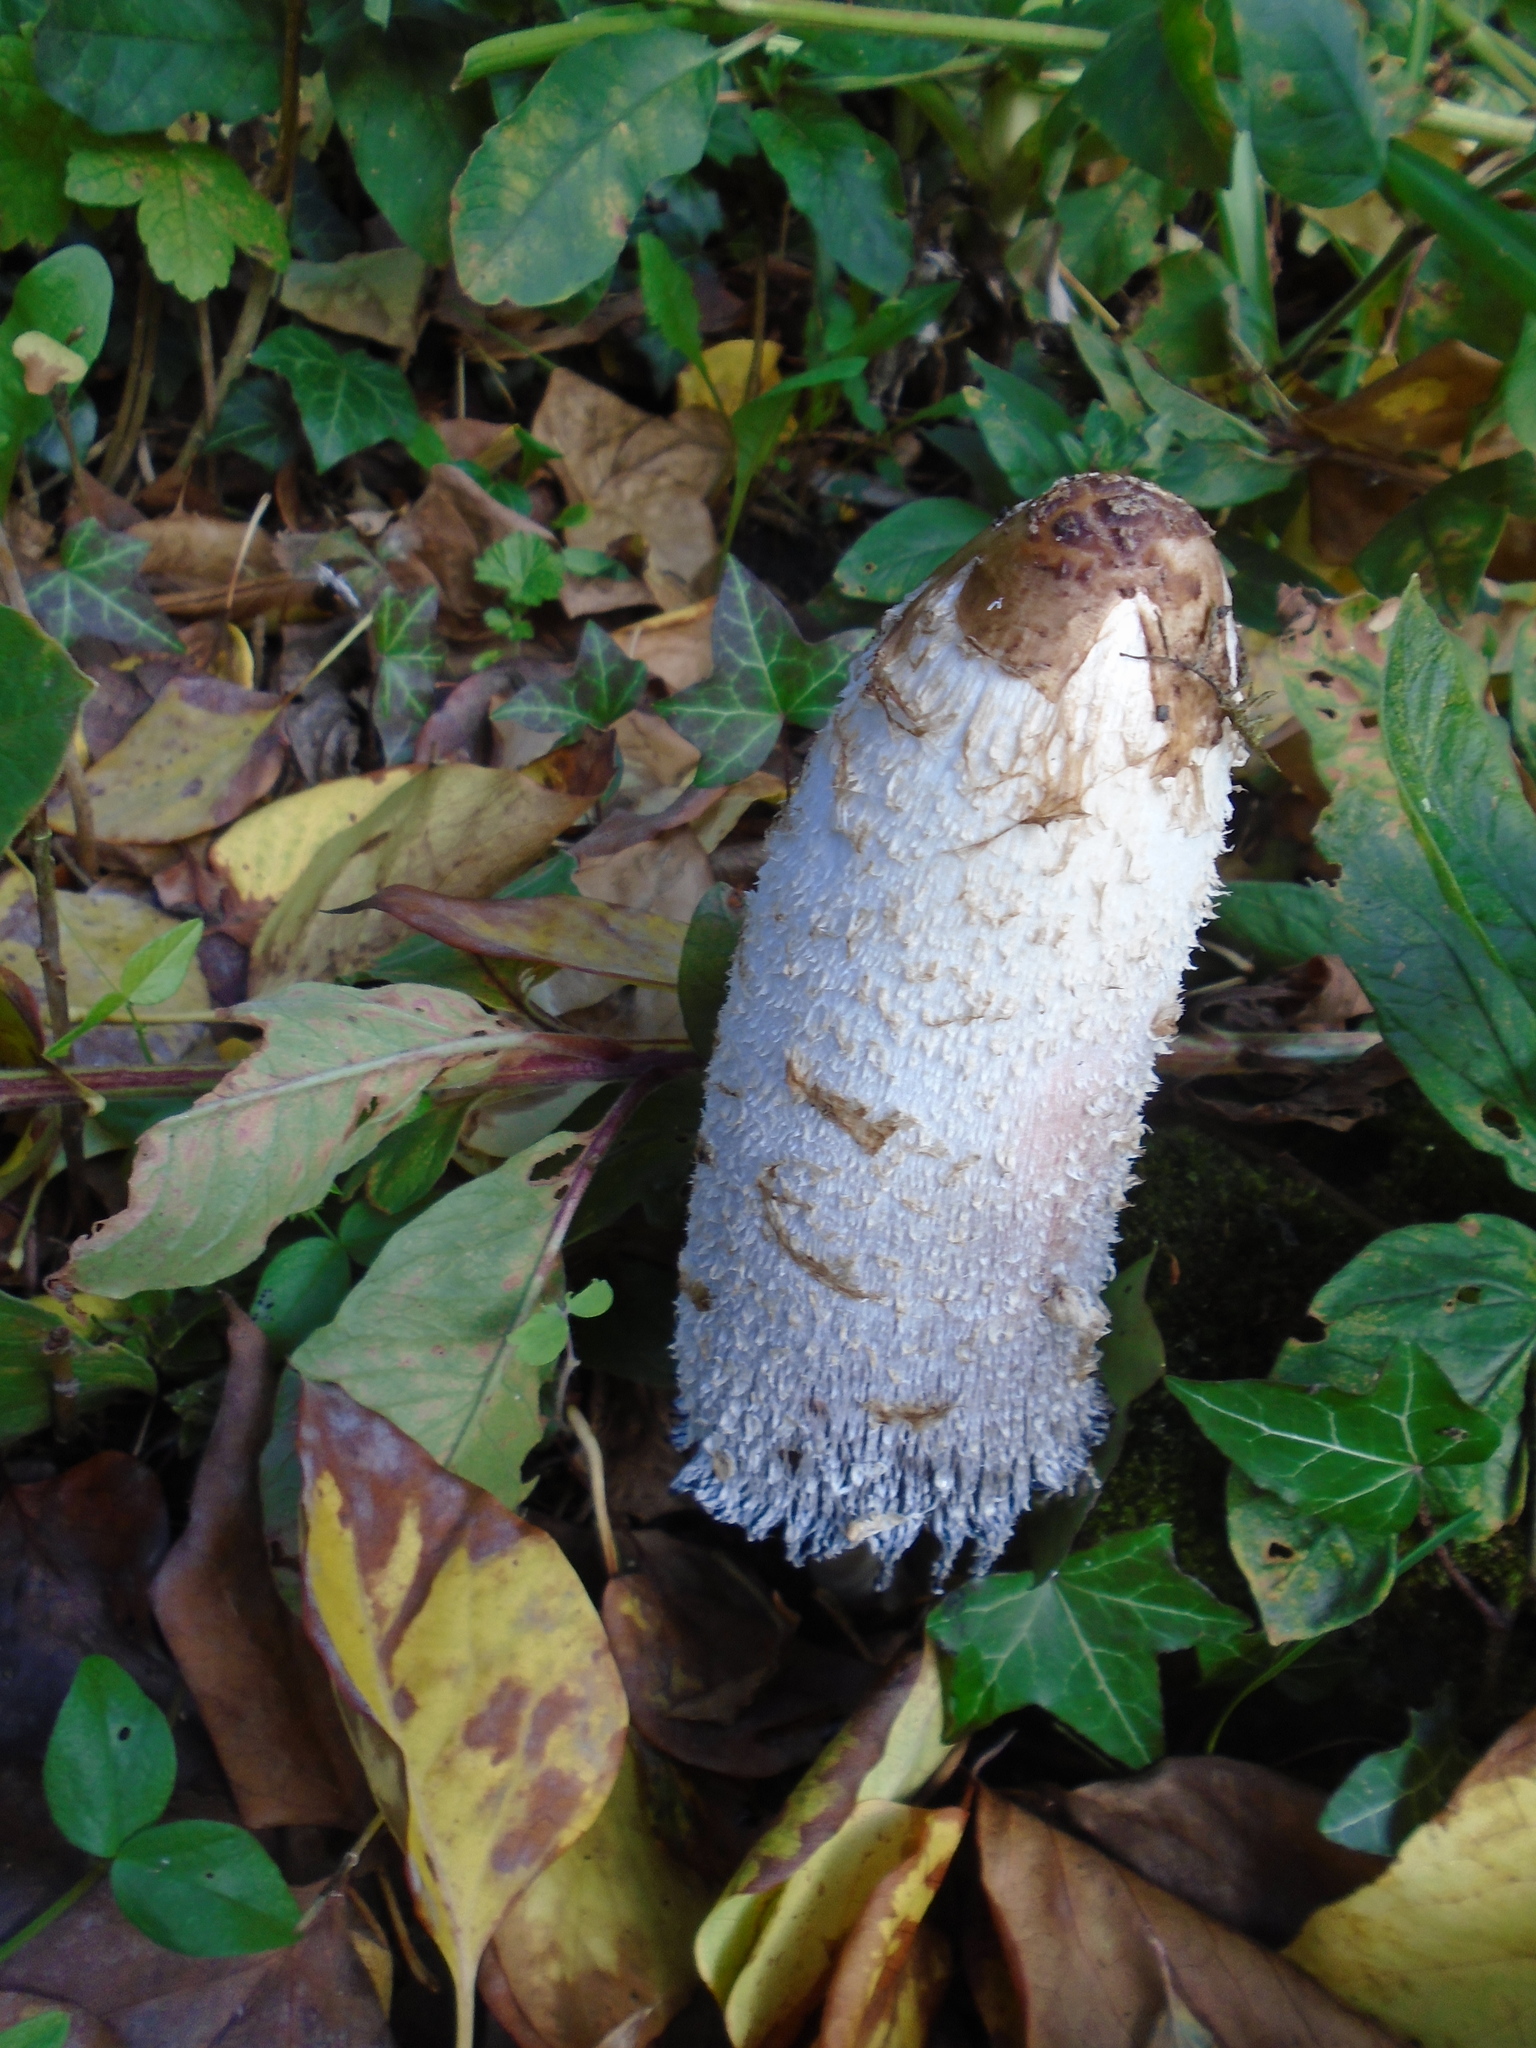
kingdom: Fungi
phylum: Basidiomycota
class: Agaricomycetes
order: Agaricales
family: Agaricaceae
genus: Coprinus
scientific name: Coprinus comatus
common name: Lawyer's wig
